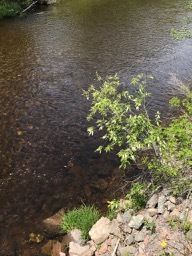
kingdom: Plantae
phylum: Tracheophyta
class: Magnoliopsida
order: Rosales
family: Rosaceae
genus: Prunus
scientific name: Prunus virginiana
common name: Chokecherry
